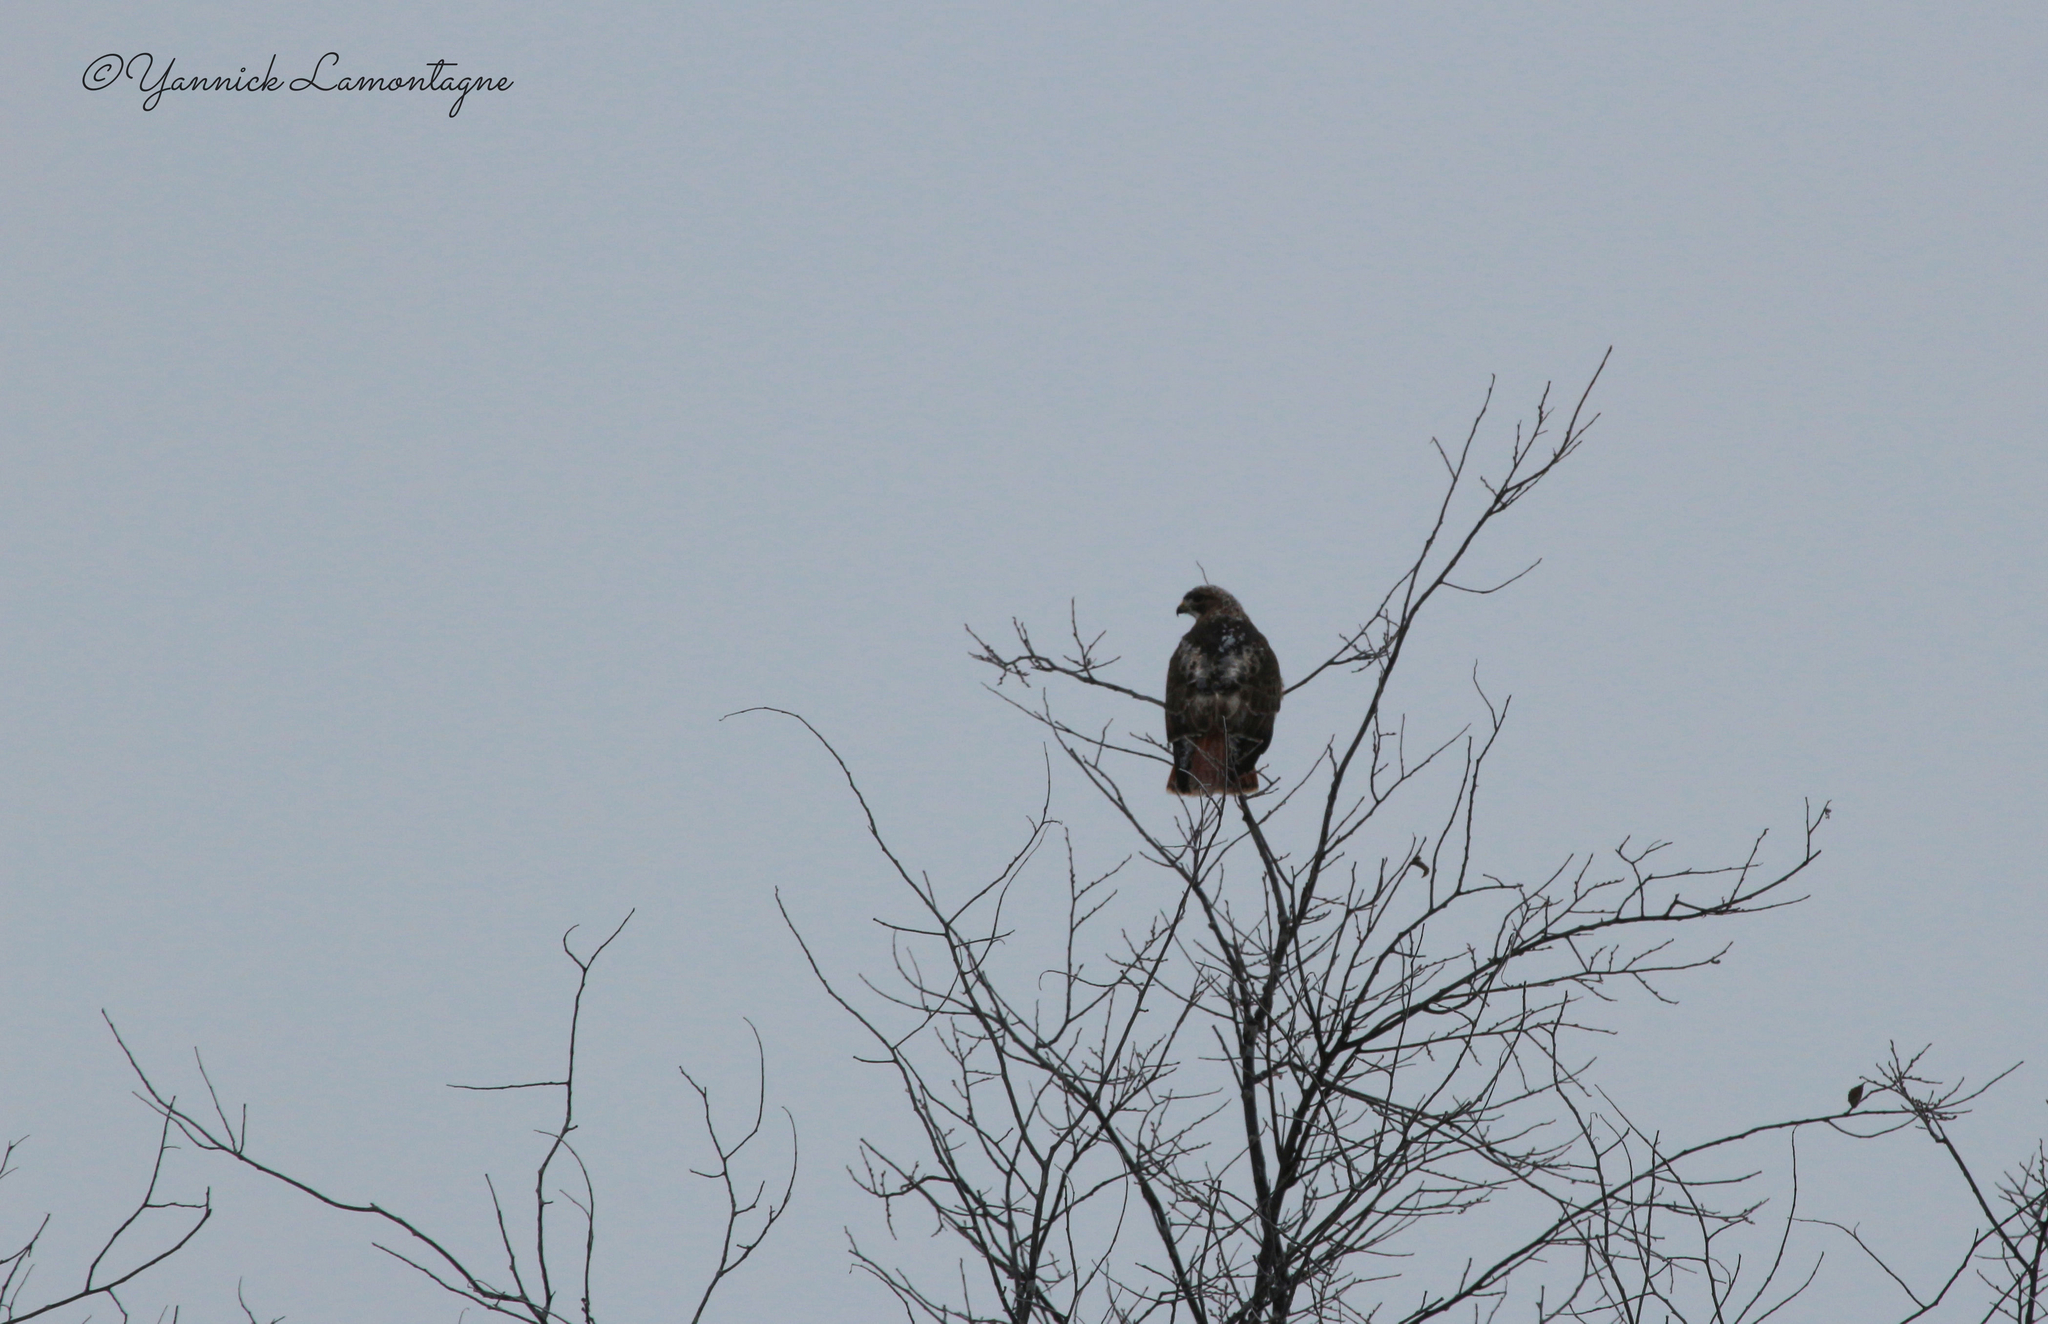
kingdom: Animalia
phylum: Chordata
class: Aves
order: Accipitriformes
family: Accipitridae
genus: Buteo
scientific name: Buteo jamaicensis
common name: Red-tailed hawk
